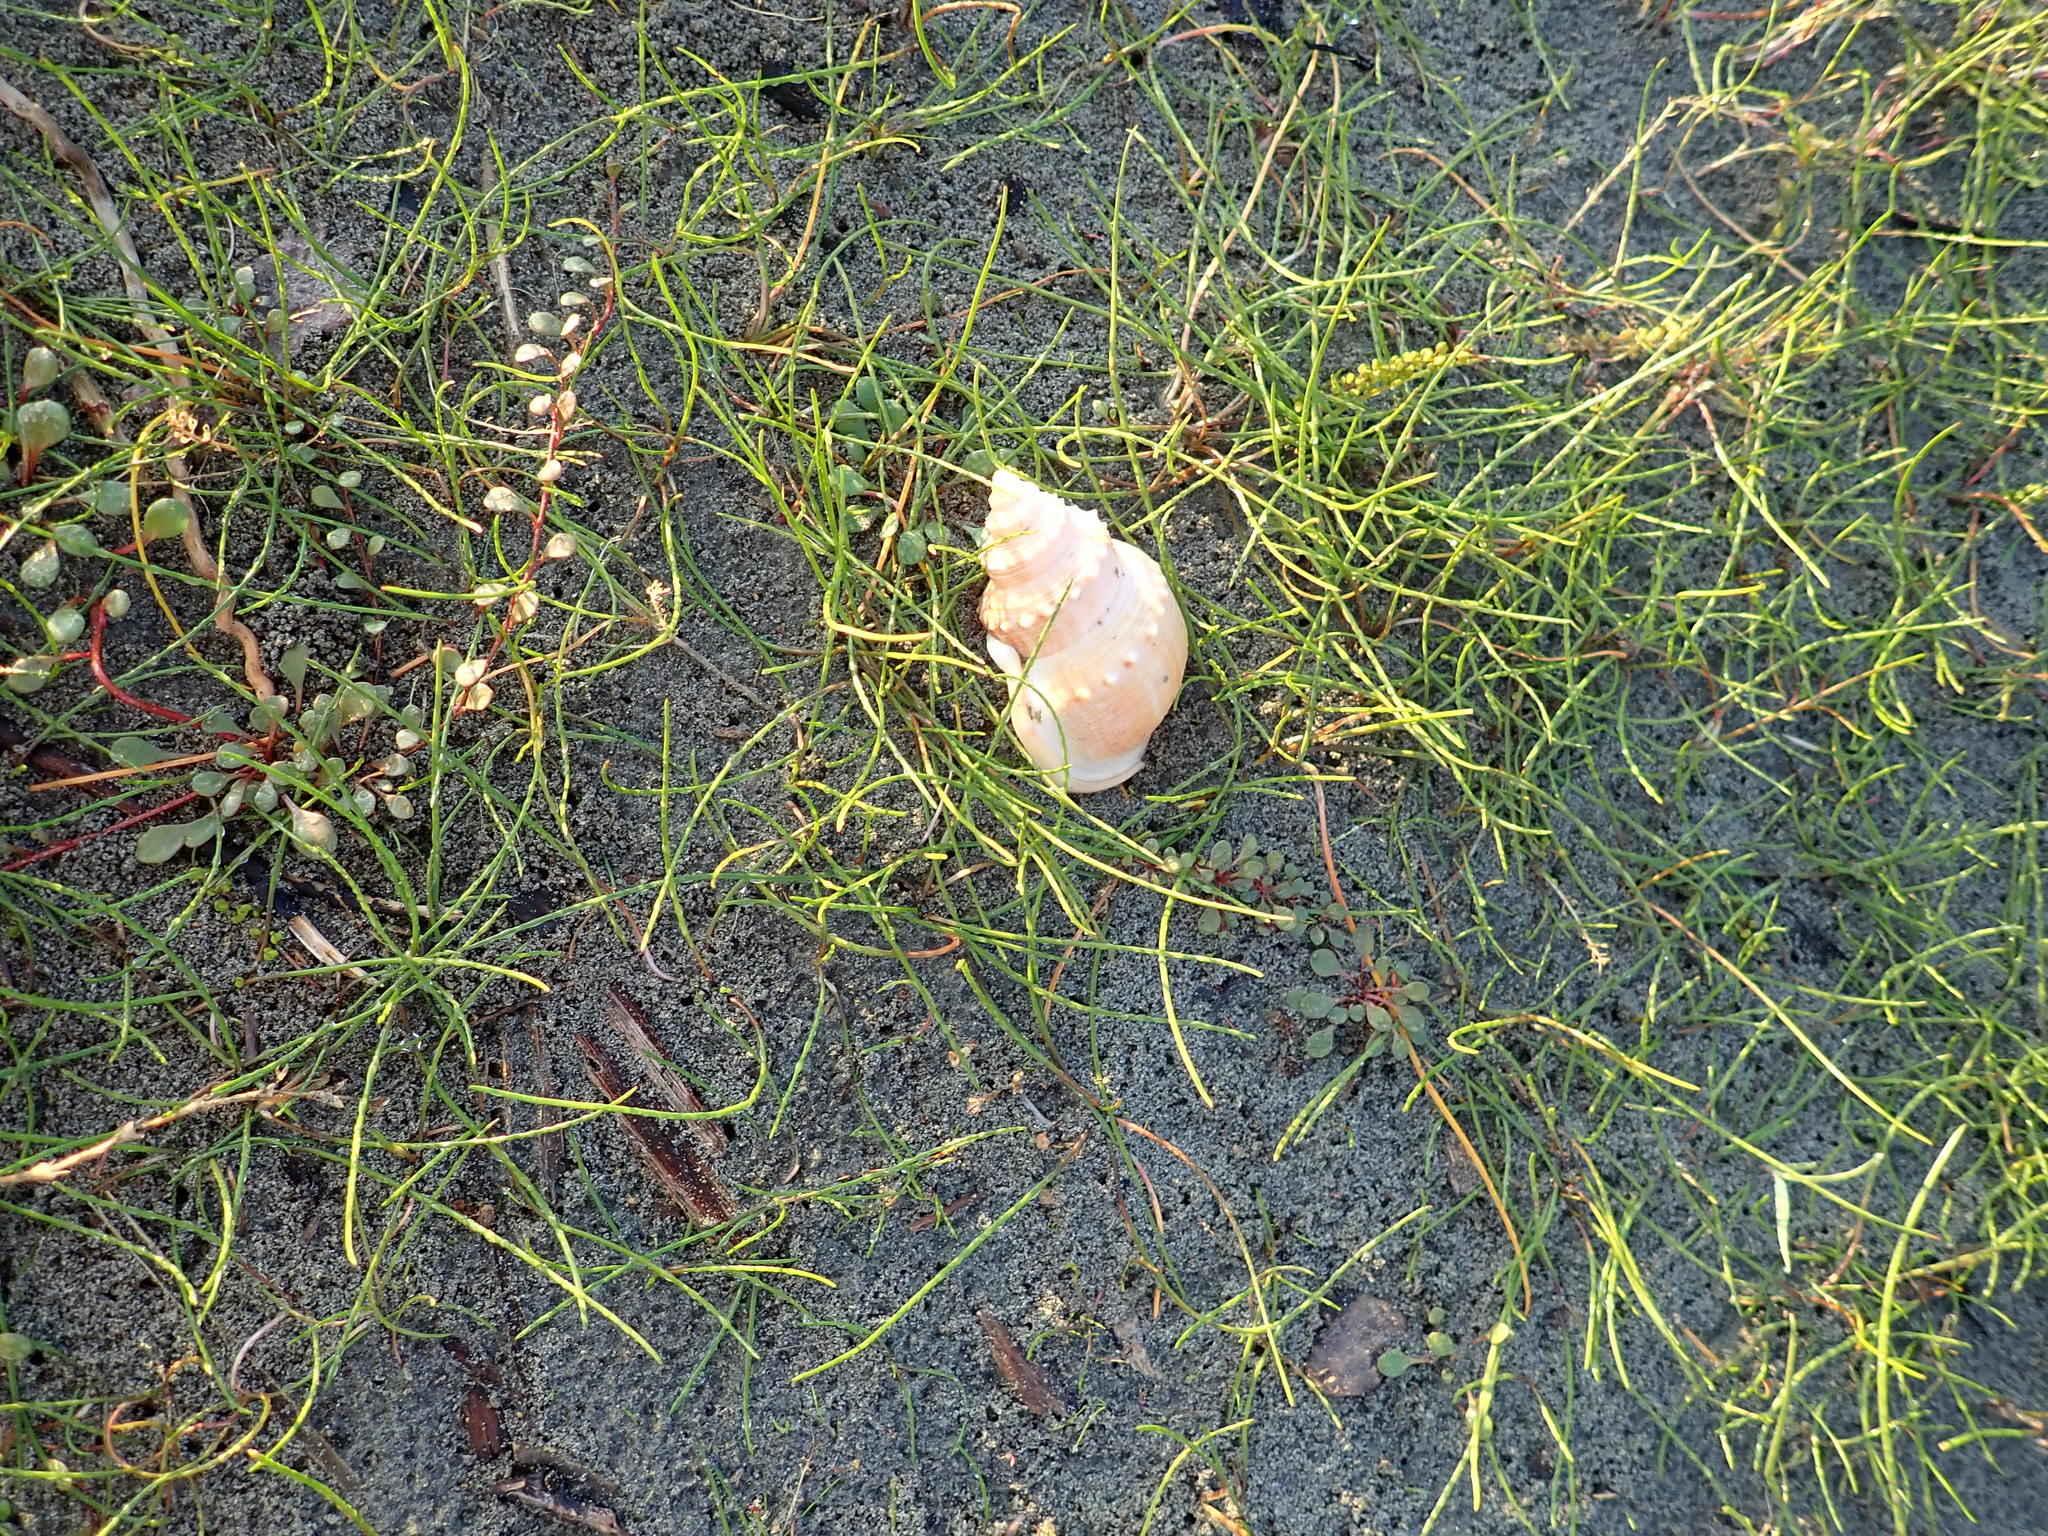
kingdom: Animalia
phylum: Mollusca
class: Gastropoda
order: Littorinimorpha
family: Struthiolariidae
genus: Struthiolaria
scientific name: Struthiolaria papulosa
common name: Large ostrich foot
